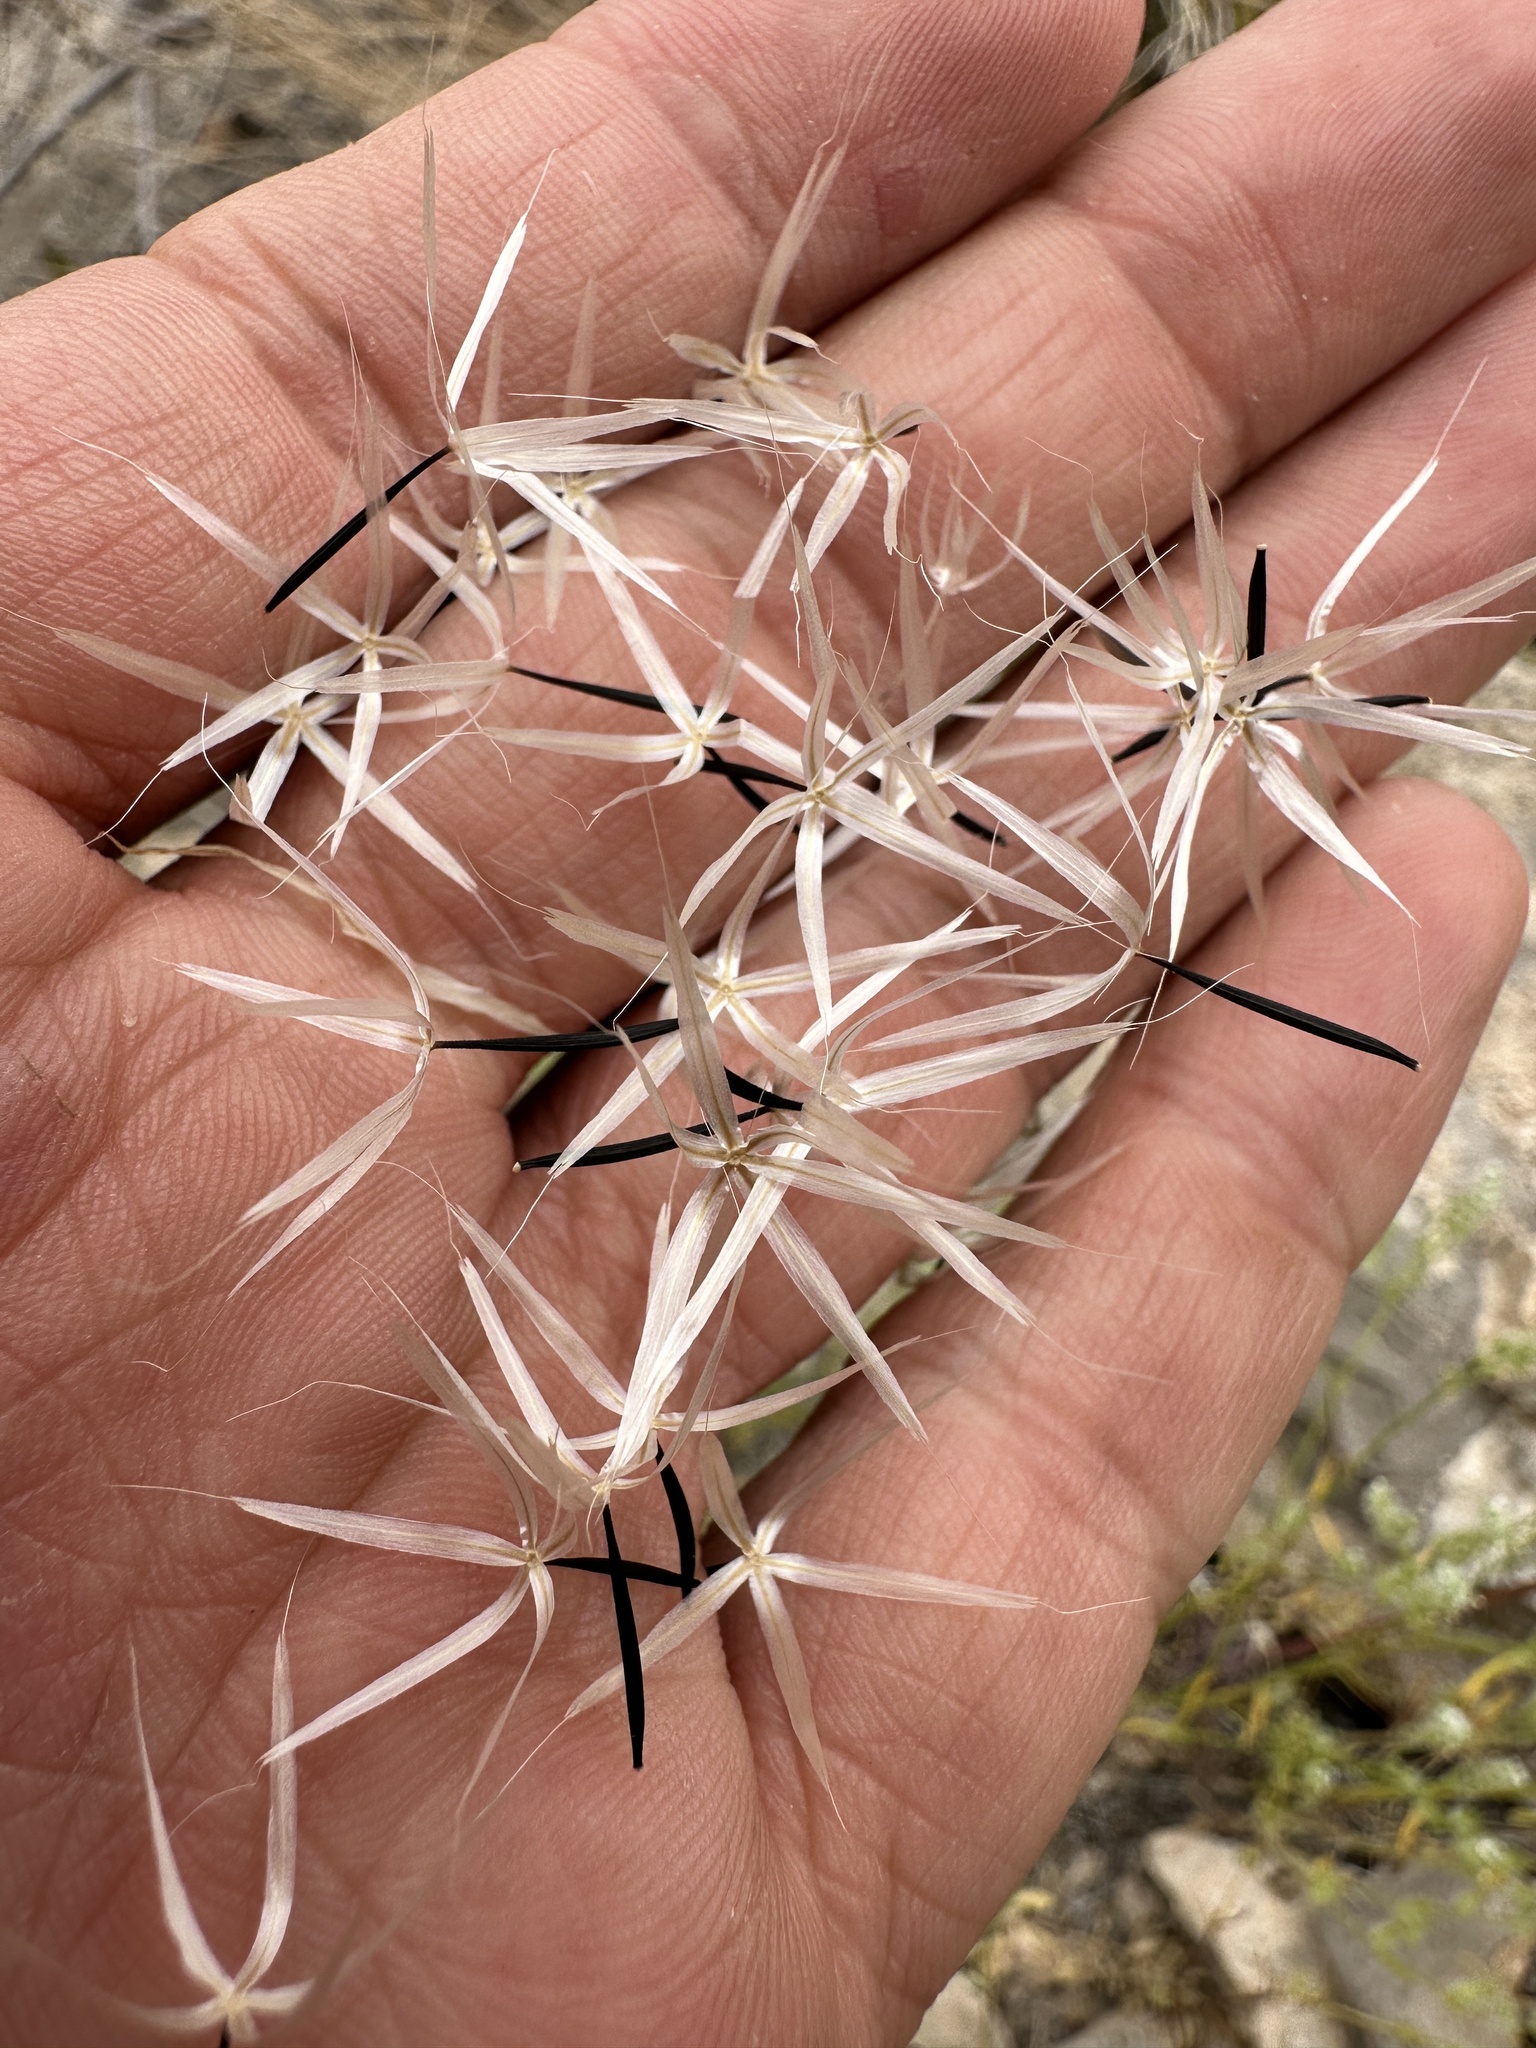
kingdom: Plantae
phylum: Tracheophyta
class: Magnoliopsida
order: Asterales
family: Asteraceae
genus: Microseris
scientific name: Microseris lindleyi
